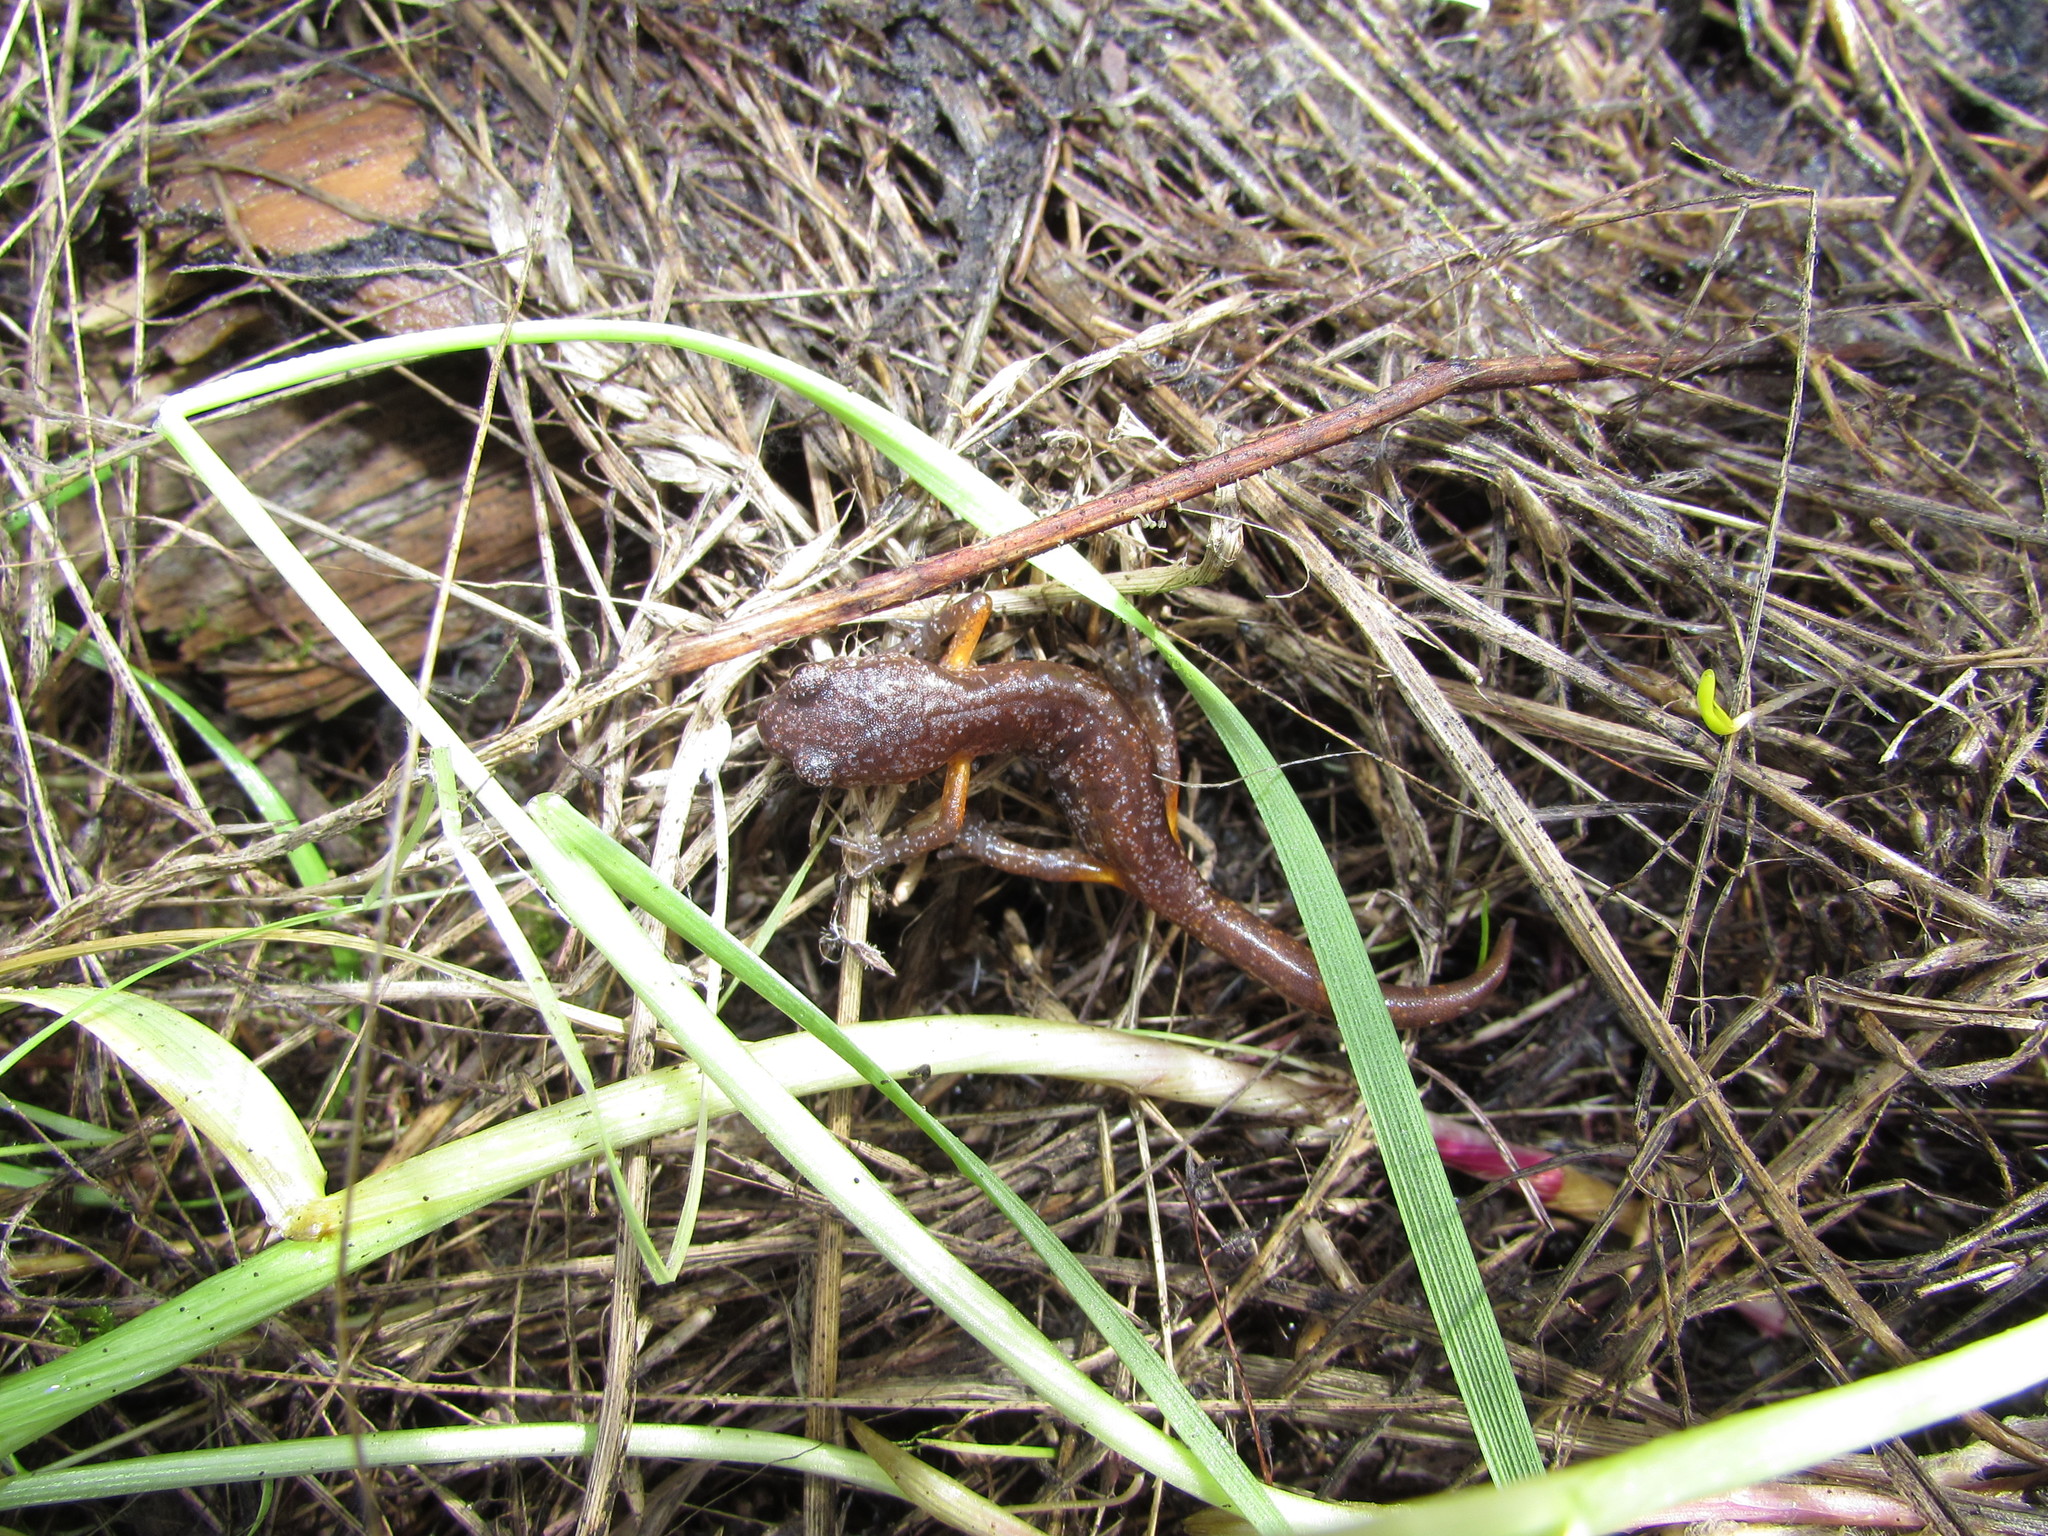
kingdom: Animalia
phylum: Chordata
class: Amphibia
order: Caudata
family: Plethodontidae
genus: Ensatina
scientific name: Ensatina eschscholtzii
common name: Ensatina
